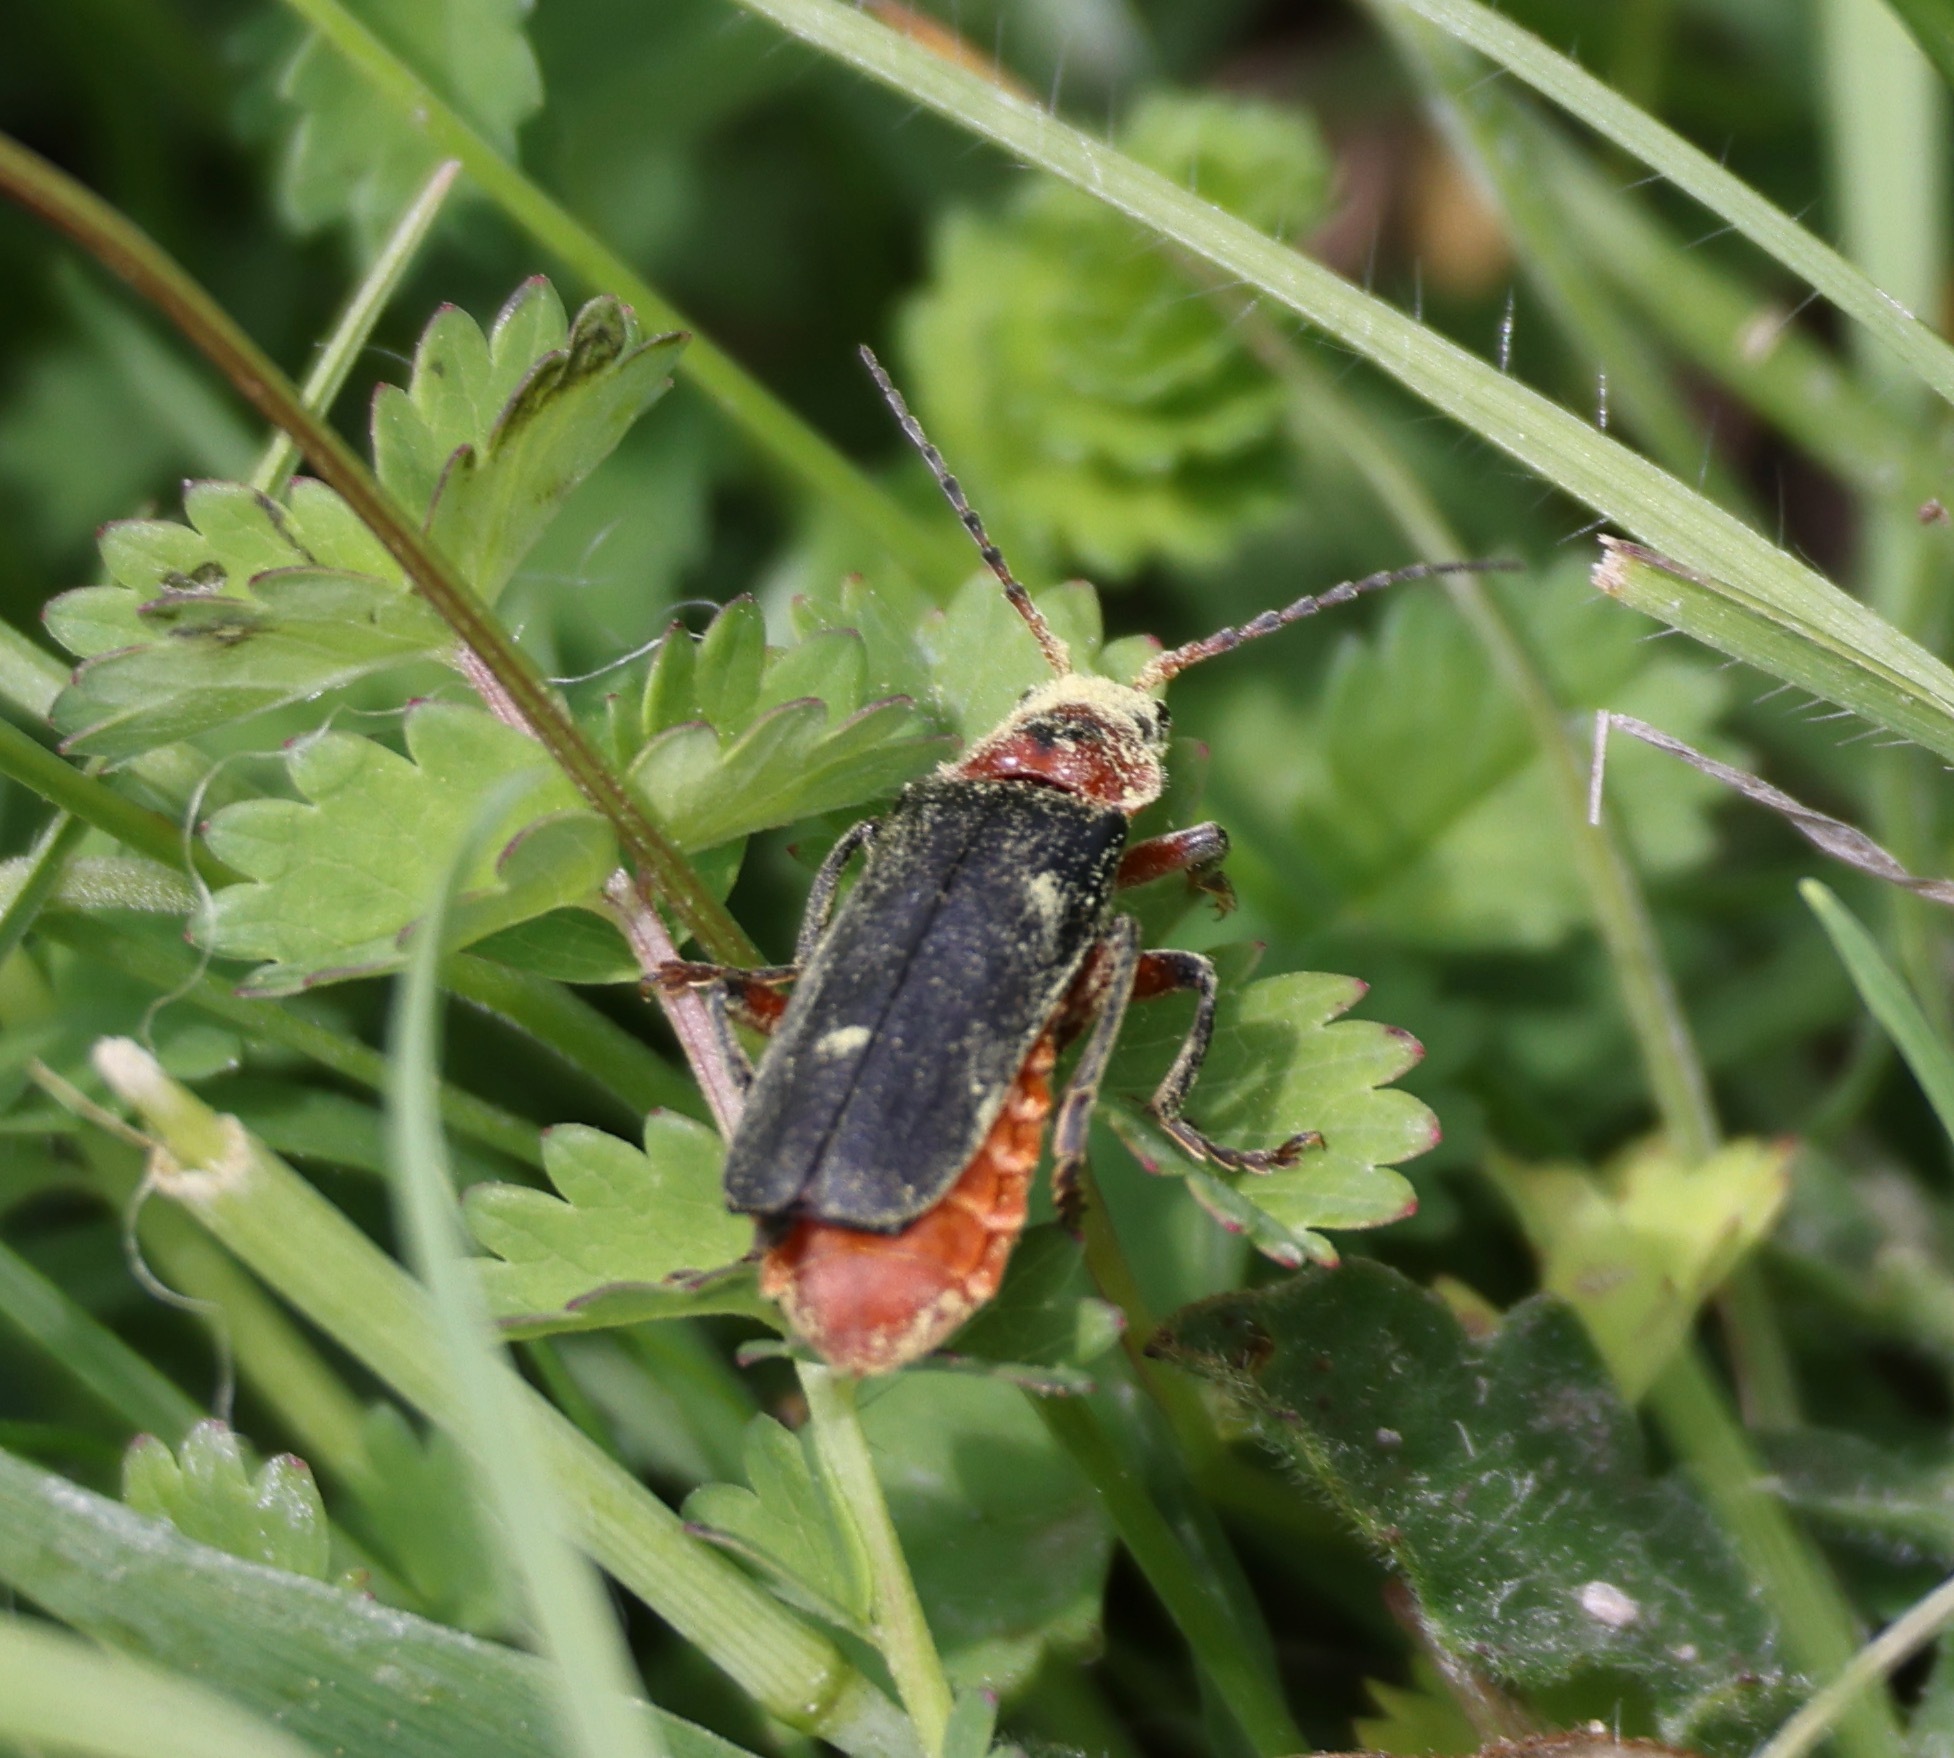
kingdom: Animalia
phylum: Arthropoda
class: Insecta
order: Coleoptera
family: Cantharidae
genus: Cantharis
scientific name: Cantharis rustica
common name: Soldier beetle
